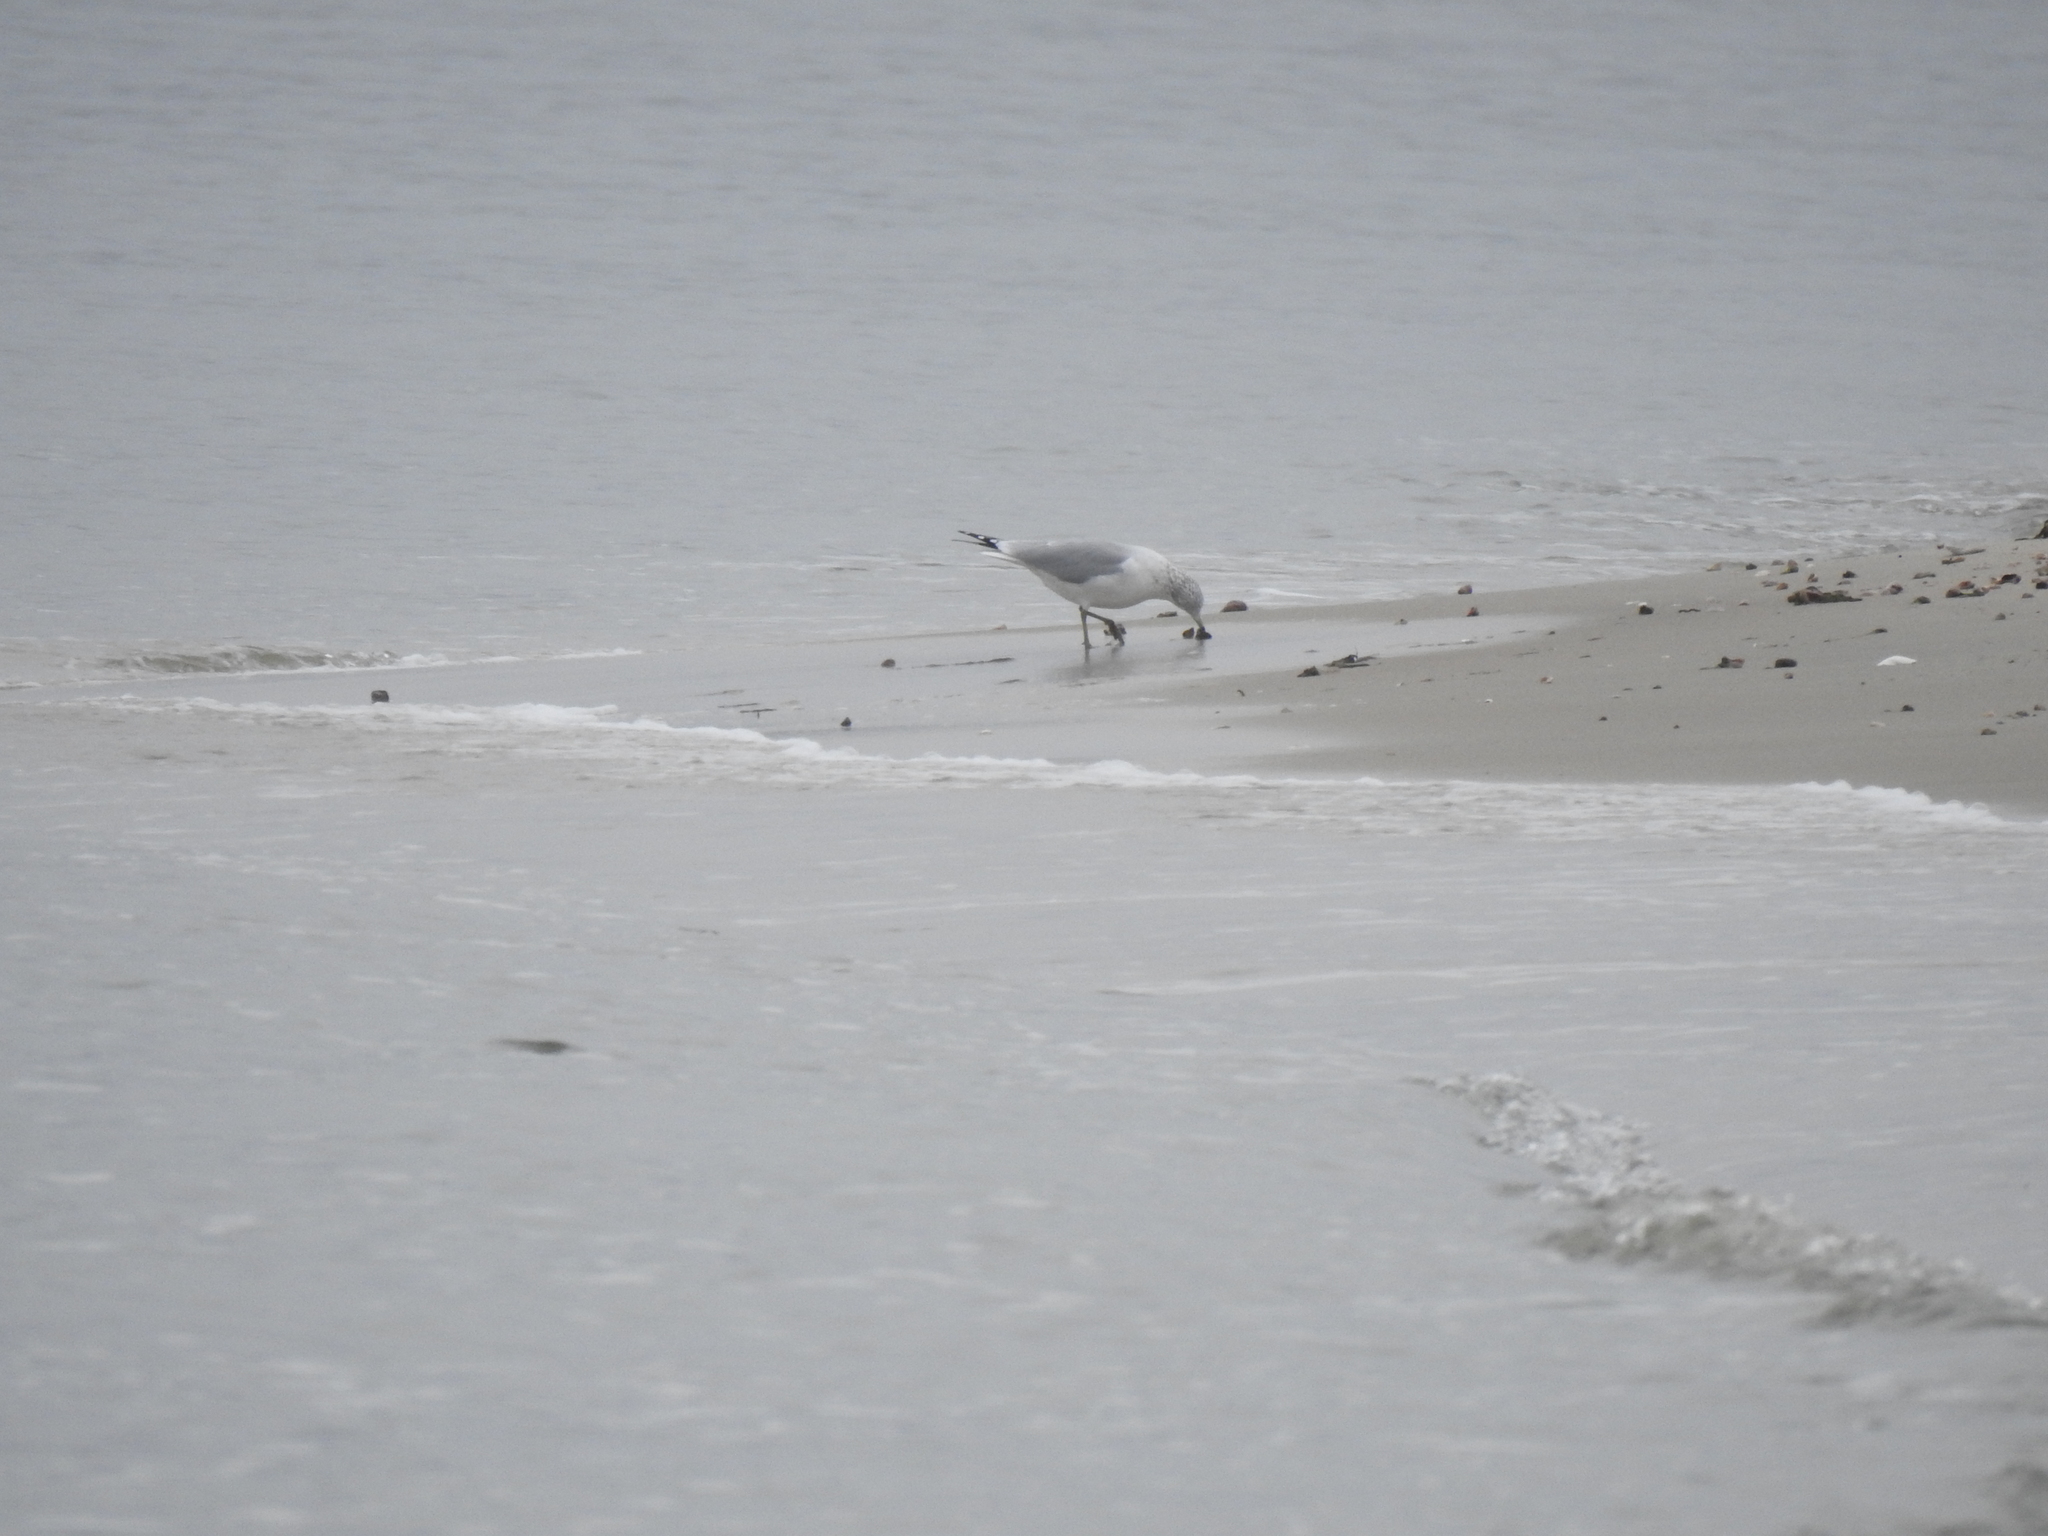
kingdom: Animalia
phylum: Chordata
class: Aves
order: Charadriiformes
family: Laridae
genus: Larus
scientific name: Larus delawarensis
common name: Ring-billed gull
